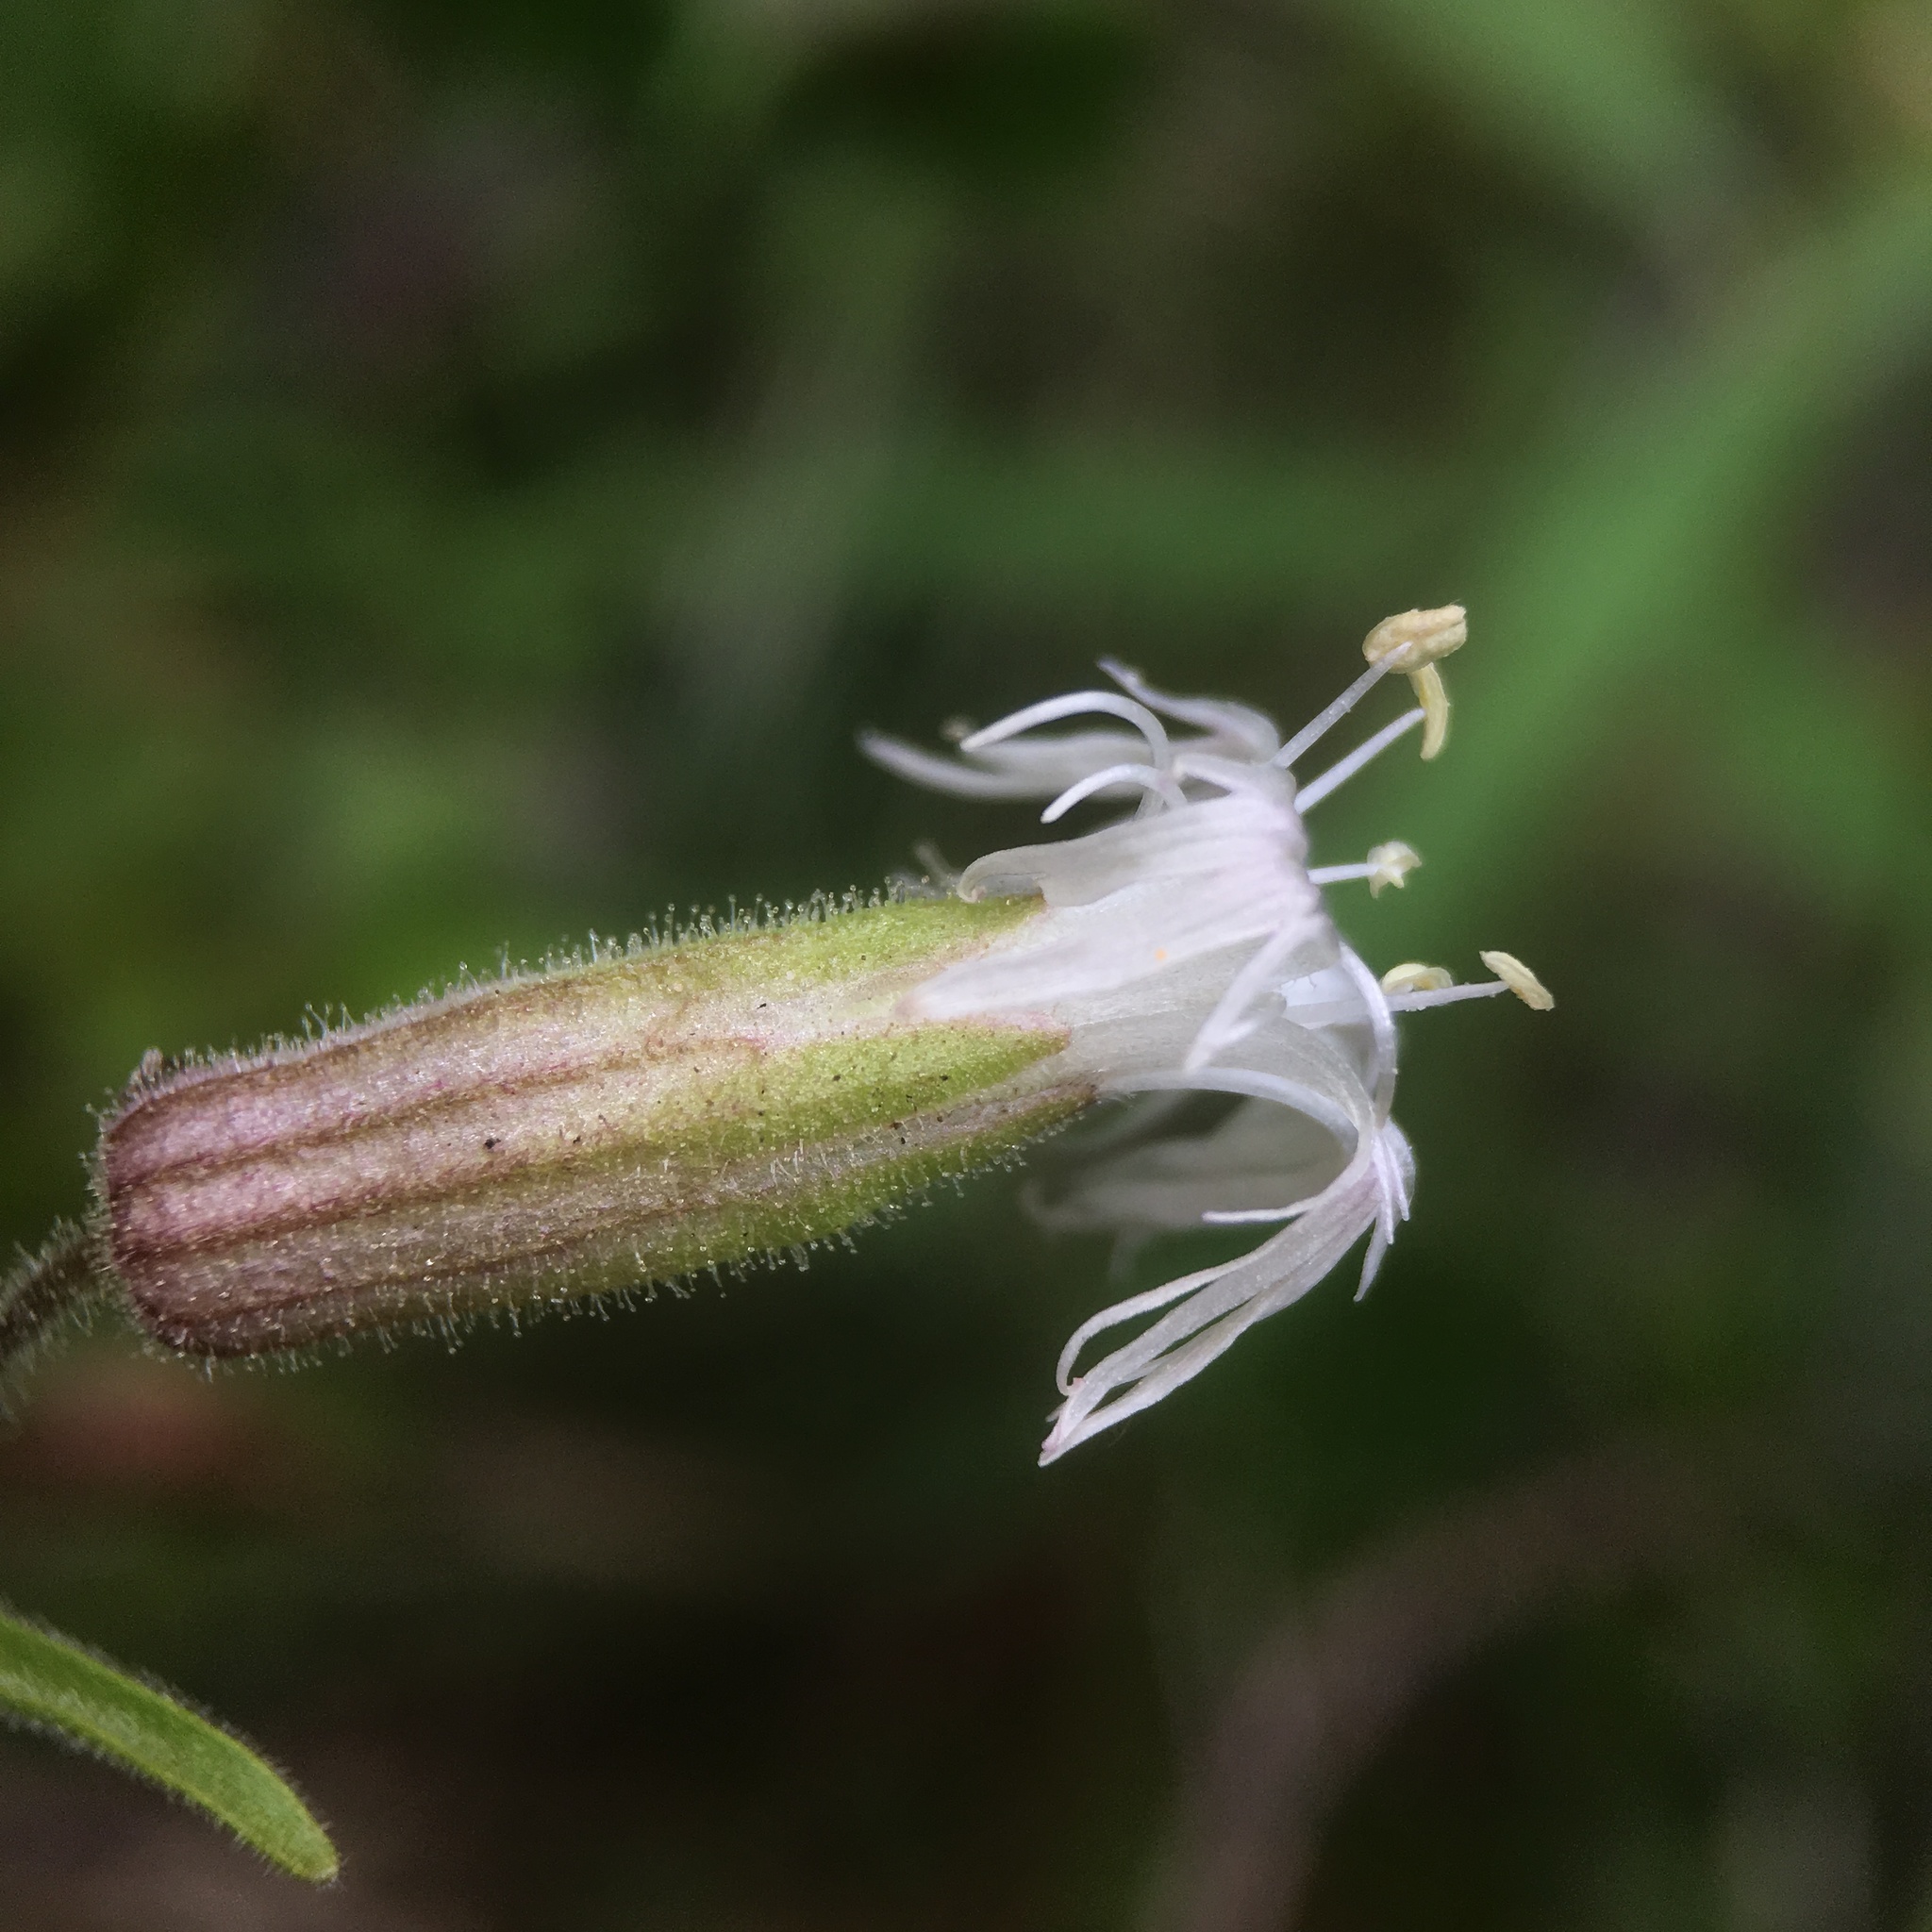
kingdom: Plantae
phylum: Tracheophyta
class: Magnoliopsida
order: Caryophyllales
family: Caryophyllaceae
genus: Silene
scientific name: Silene oregana
